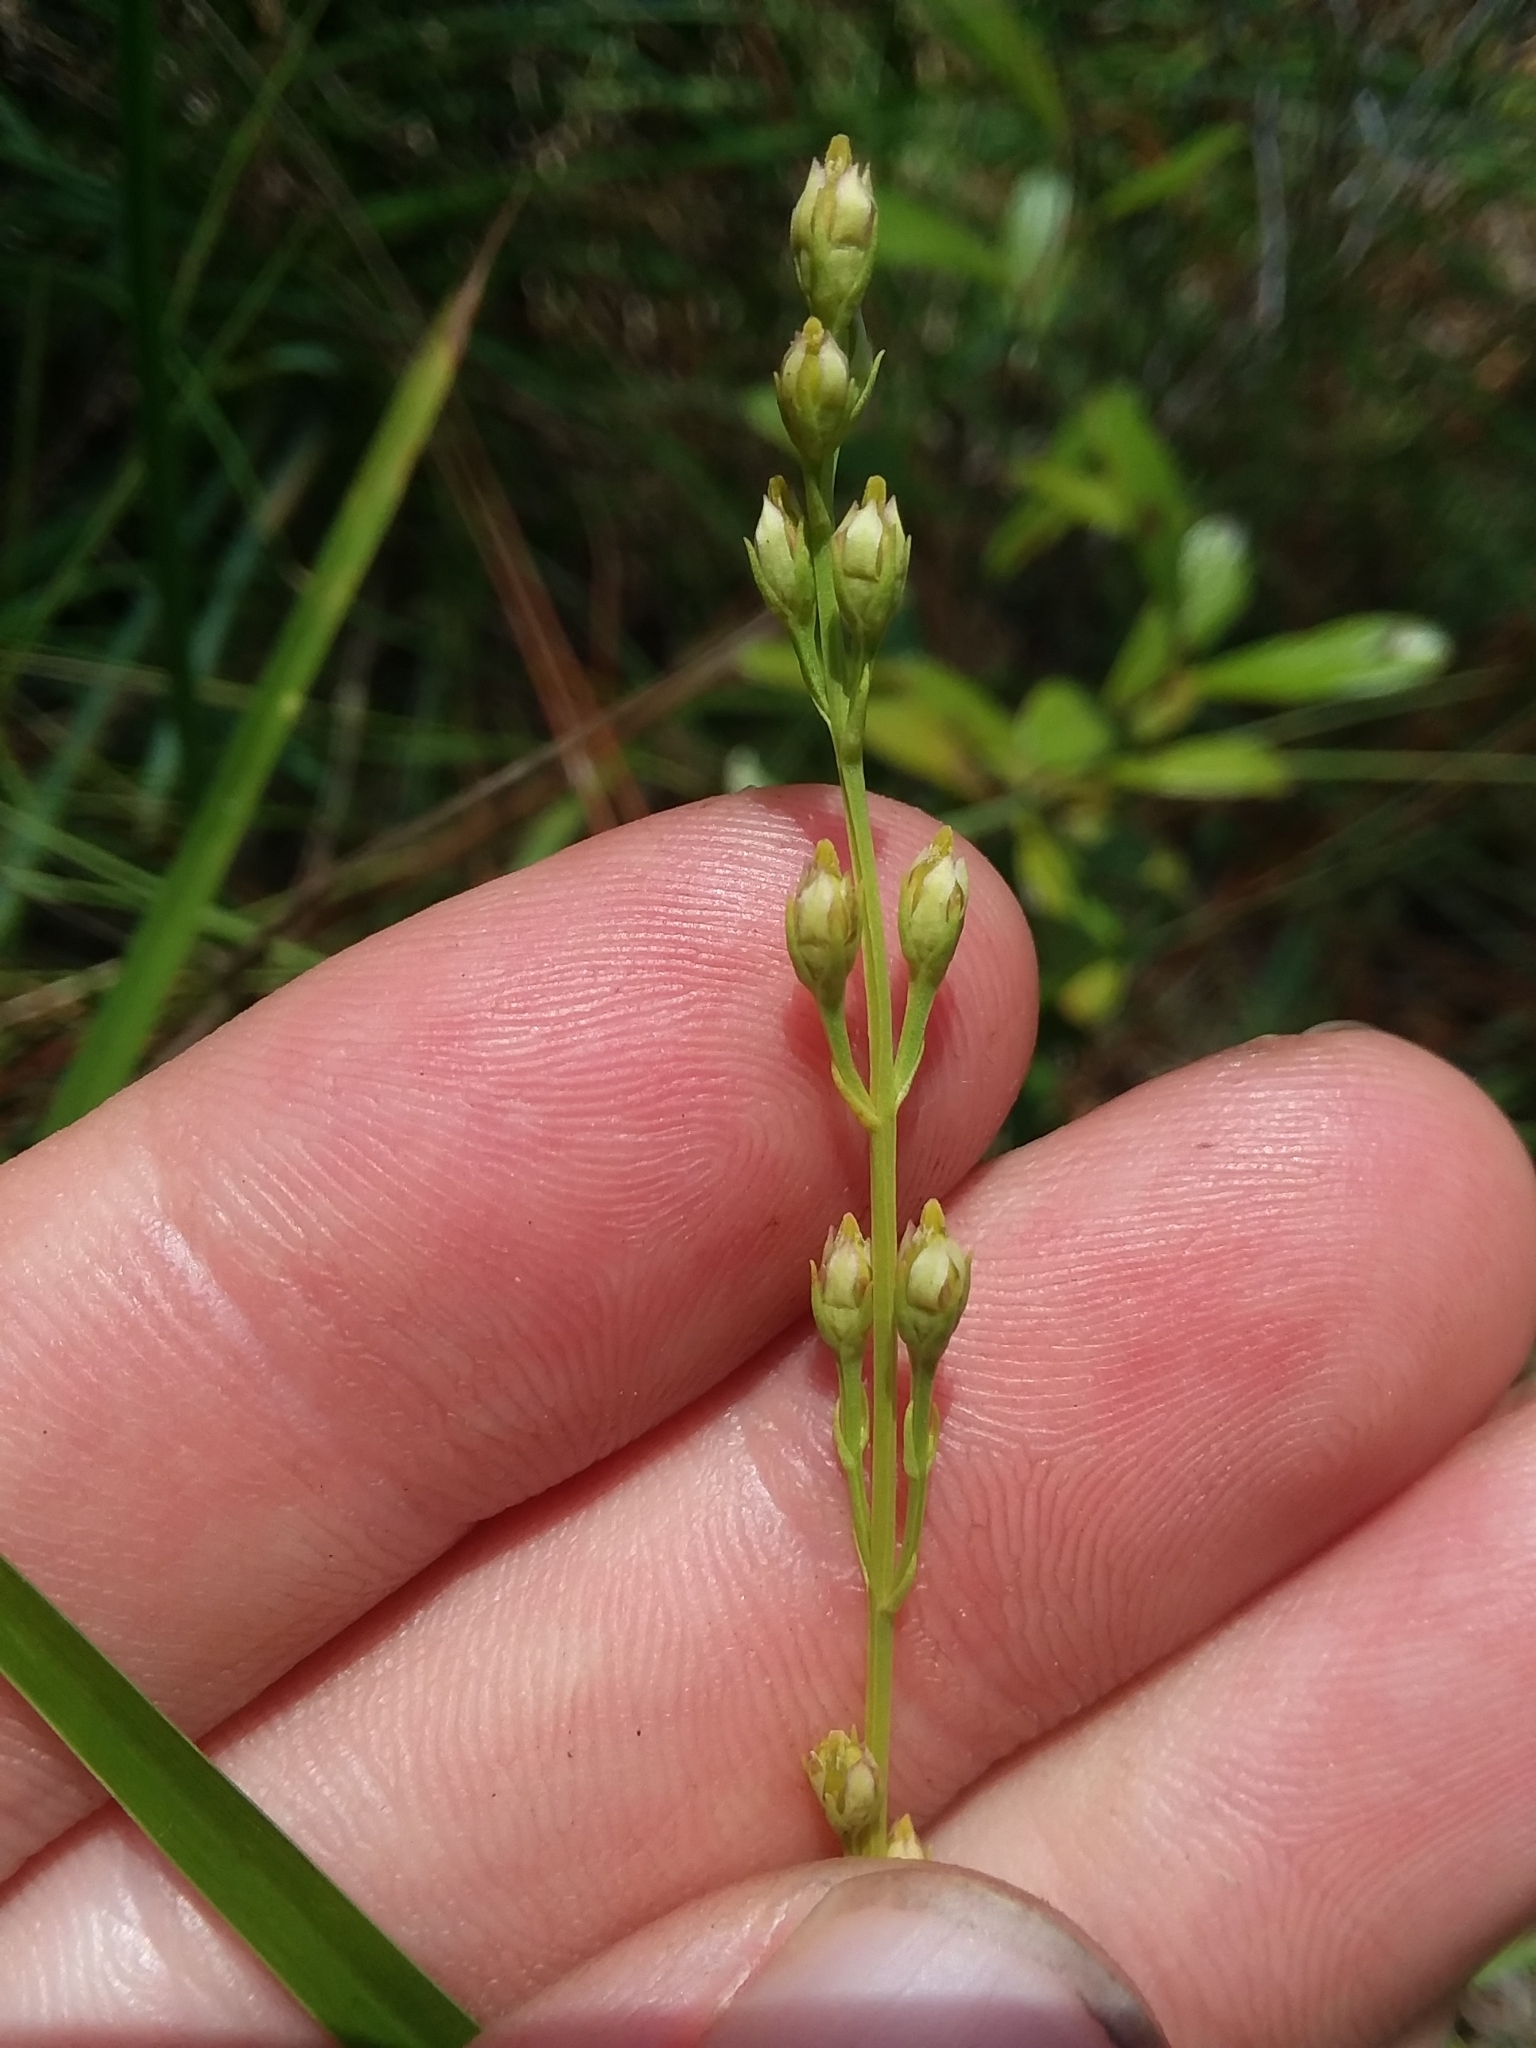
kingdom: Plantae
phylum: Tracheophyta
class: Magnoliopsida
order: Gentianales
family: Gentianaceae
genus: Bartonia
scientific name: Bartonia virginica
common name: Yellow bartonia
